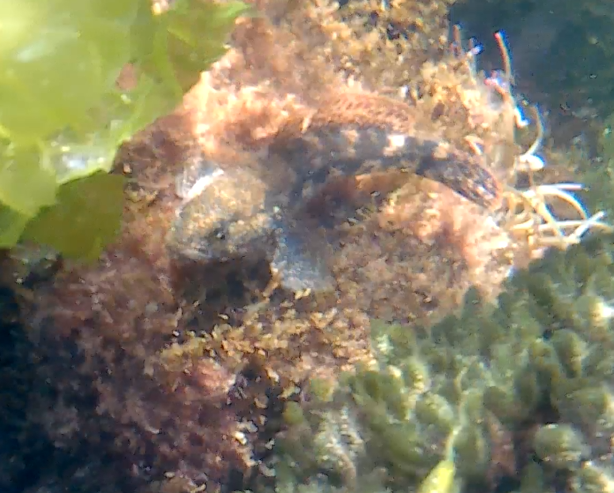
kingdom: Animalia
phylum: Chordata
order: Perciformes
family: Gobiidae
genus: Gobius
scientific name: Gobius cobitis
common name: Giant goby
